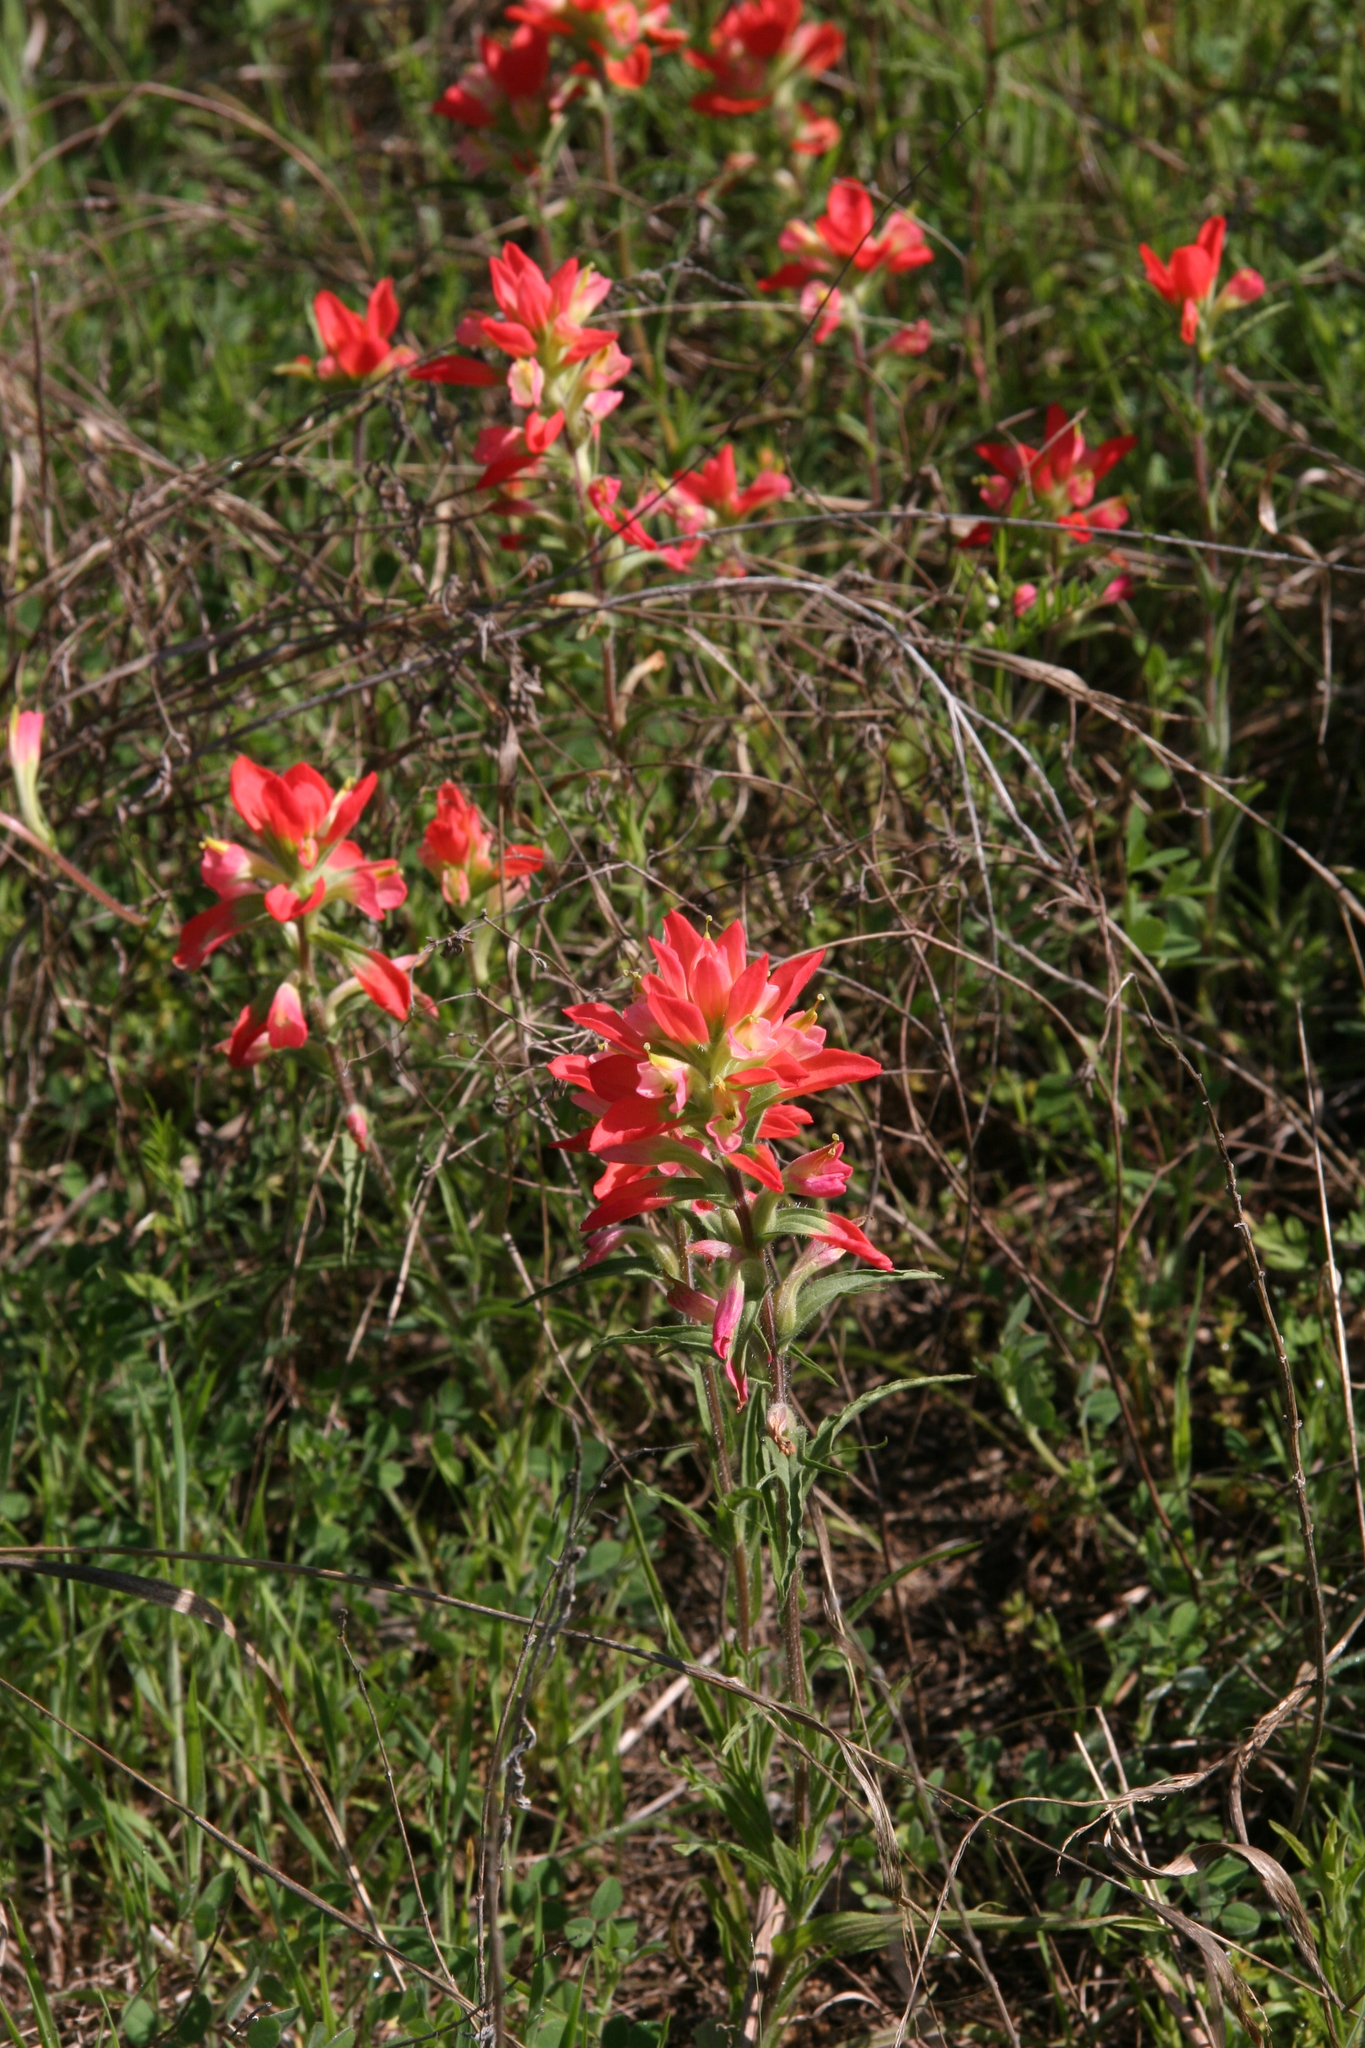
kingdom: Plantae
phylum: Tracheophyta
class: Magnoliopsida
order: Lamiales
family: Orobanchaceae
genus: Castilleja
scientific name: Castilleja indivisa
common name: Texas paintbrush
